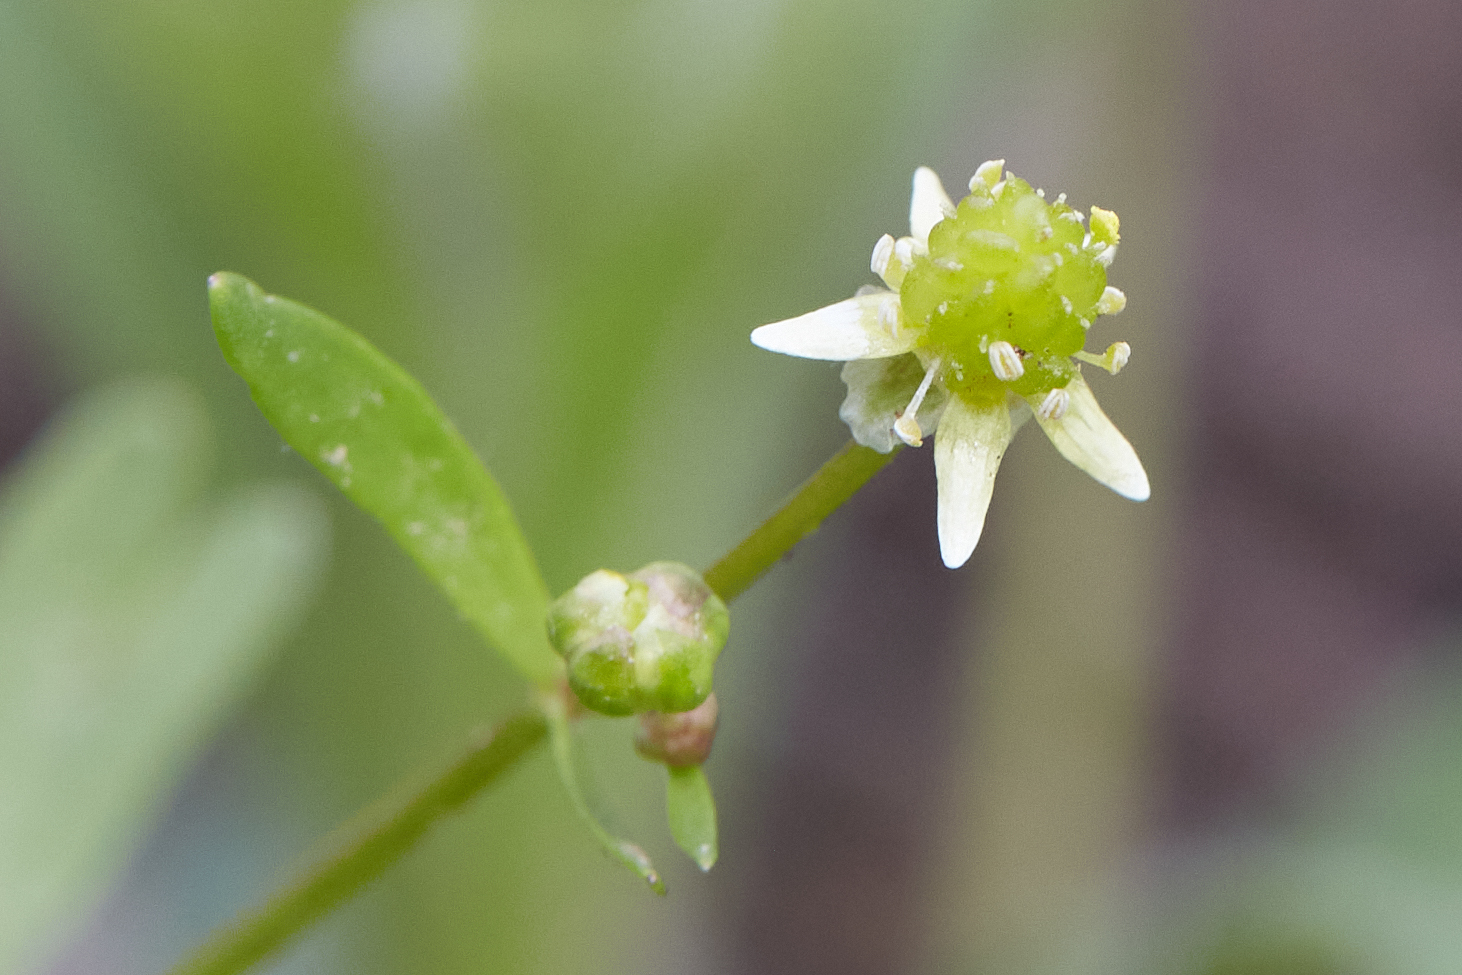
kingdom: Plantae
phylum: Tracheophyta
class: Magnoliopsida
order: Ranunculales
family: Ranunculaceae
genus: Ranunculus
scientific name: Ranunculus abortivus
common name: Early wood buttercup
